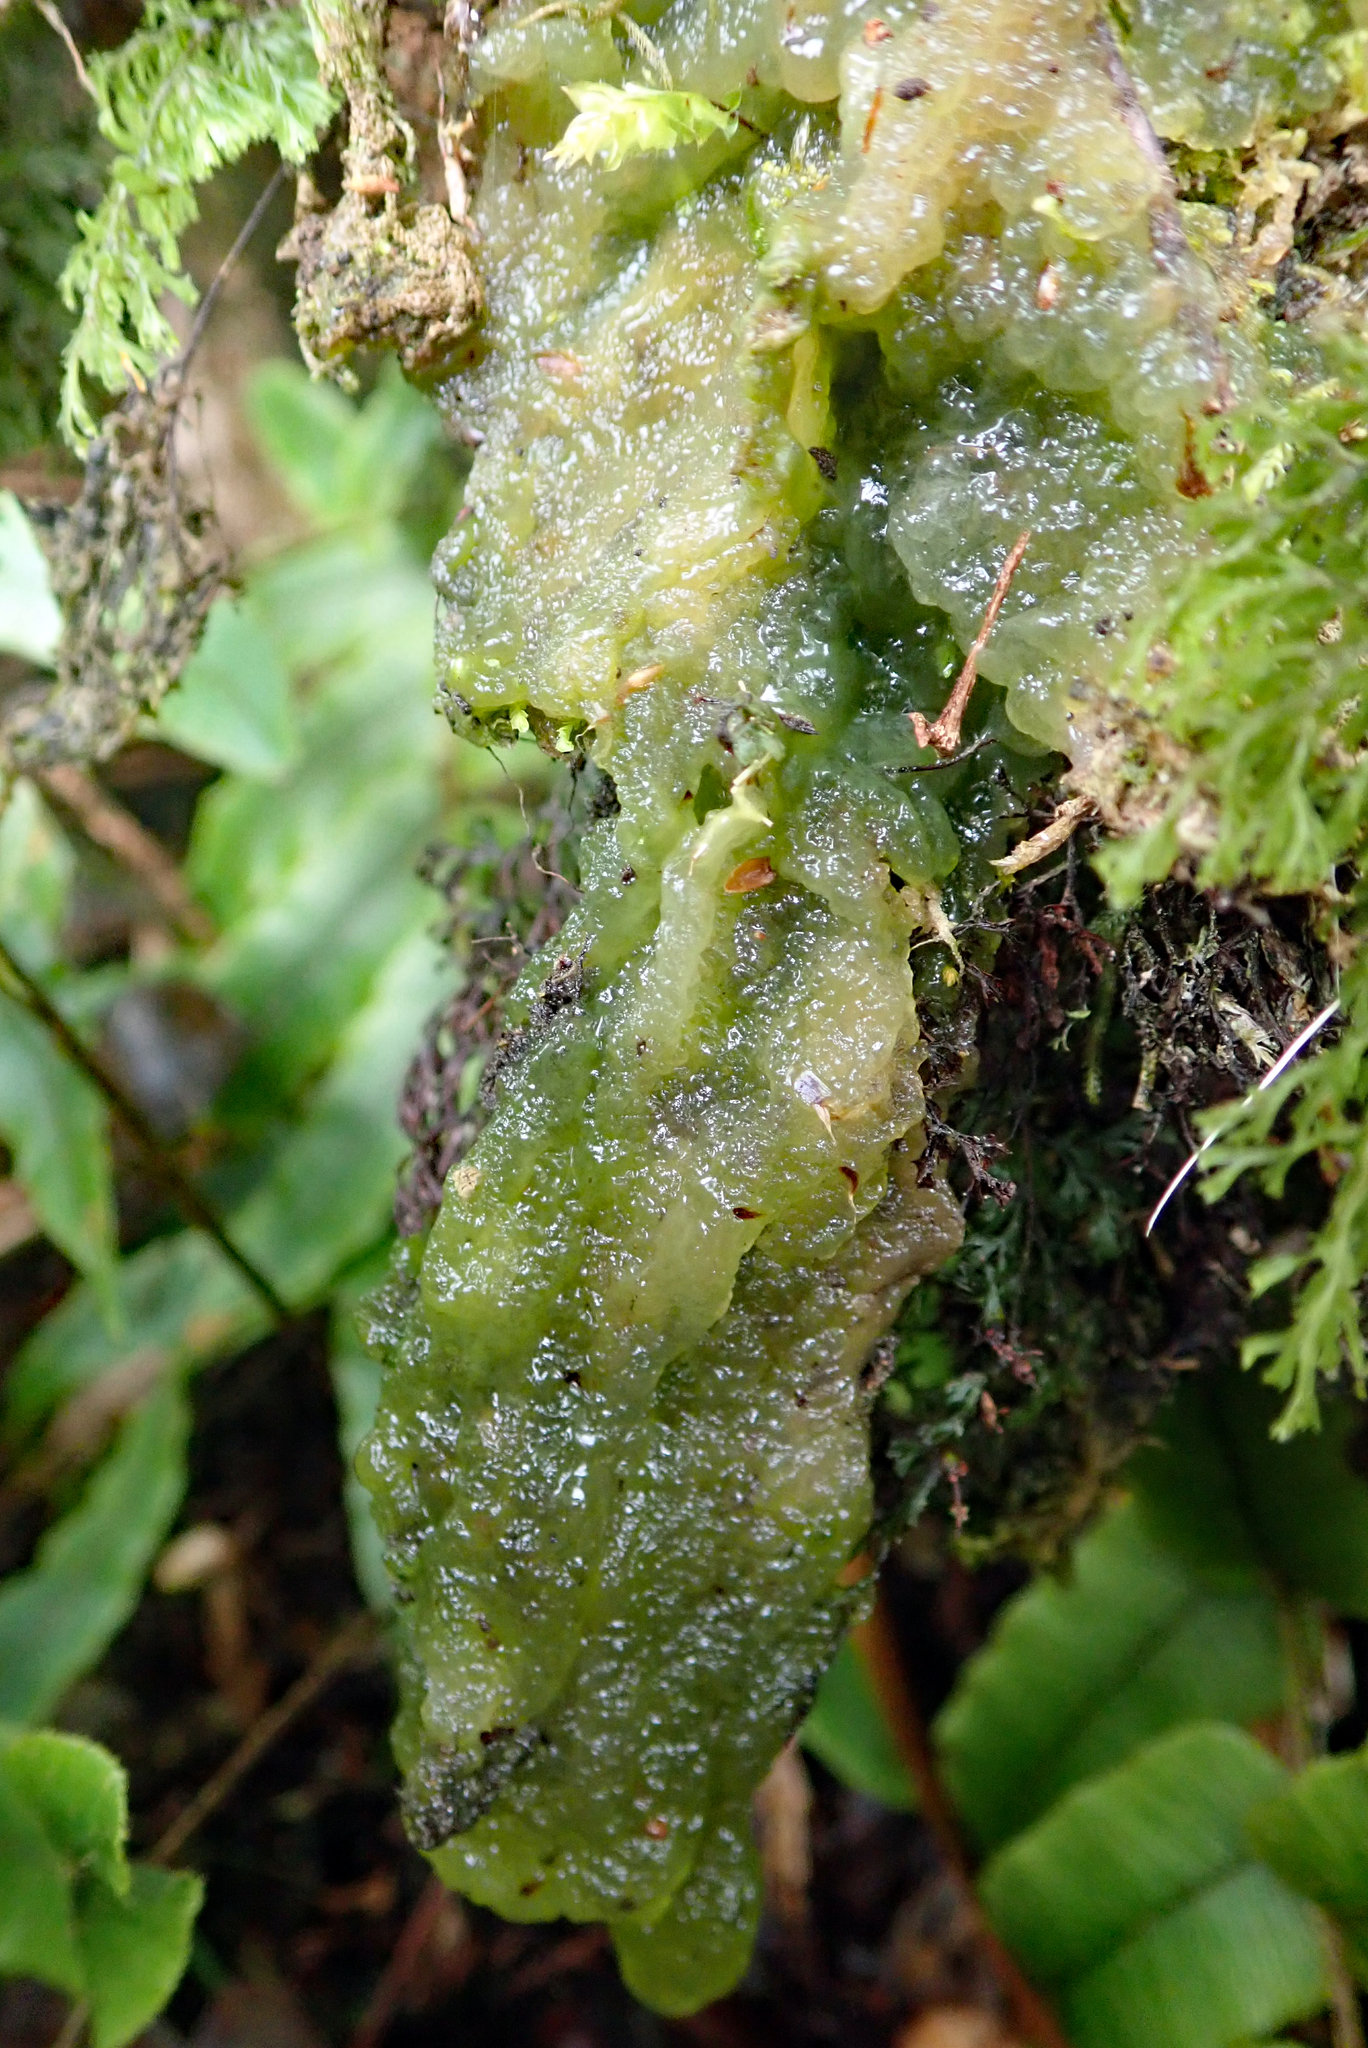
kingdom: Plantae
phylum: Charophyta
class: Zygnematophyceae
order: Zygnematales
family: Mesotaeniaceae
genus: Mesotaenium
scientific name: Mesotaenium macrococcum
